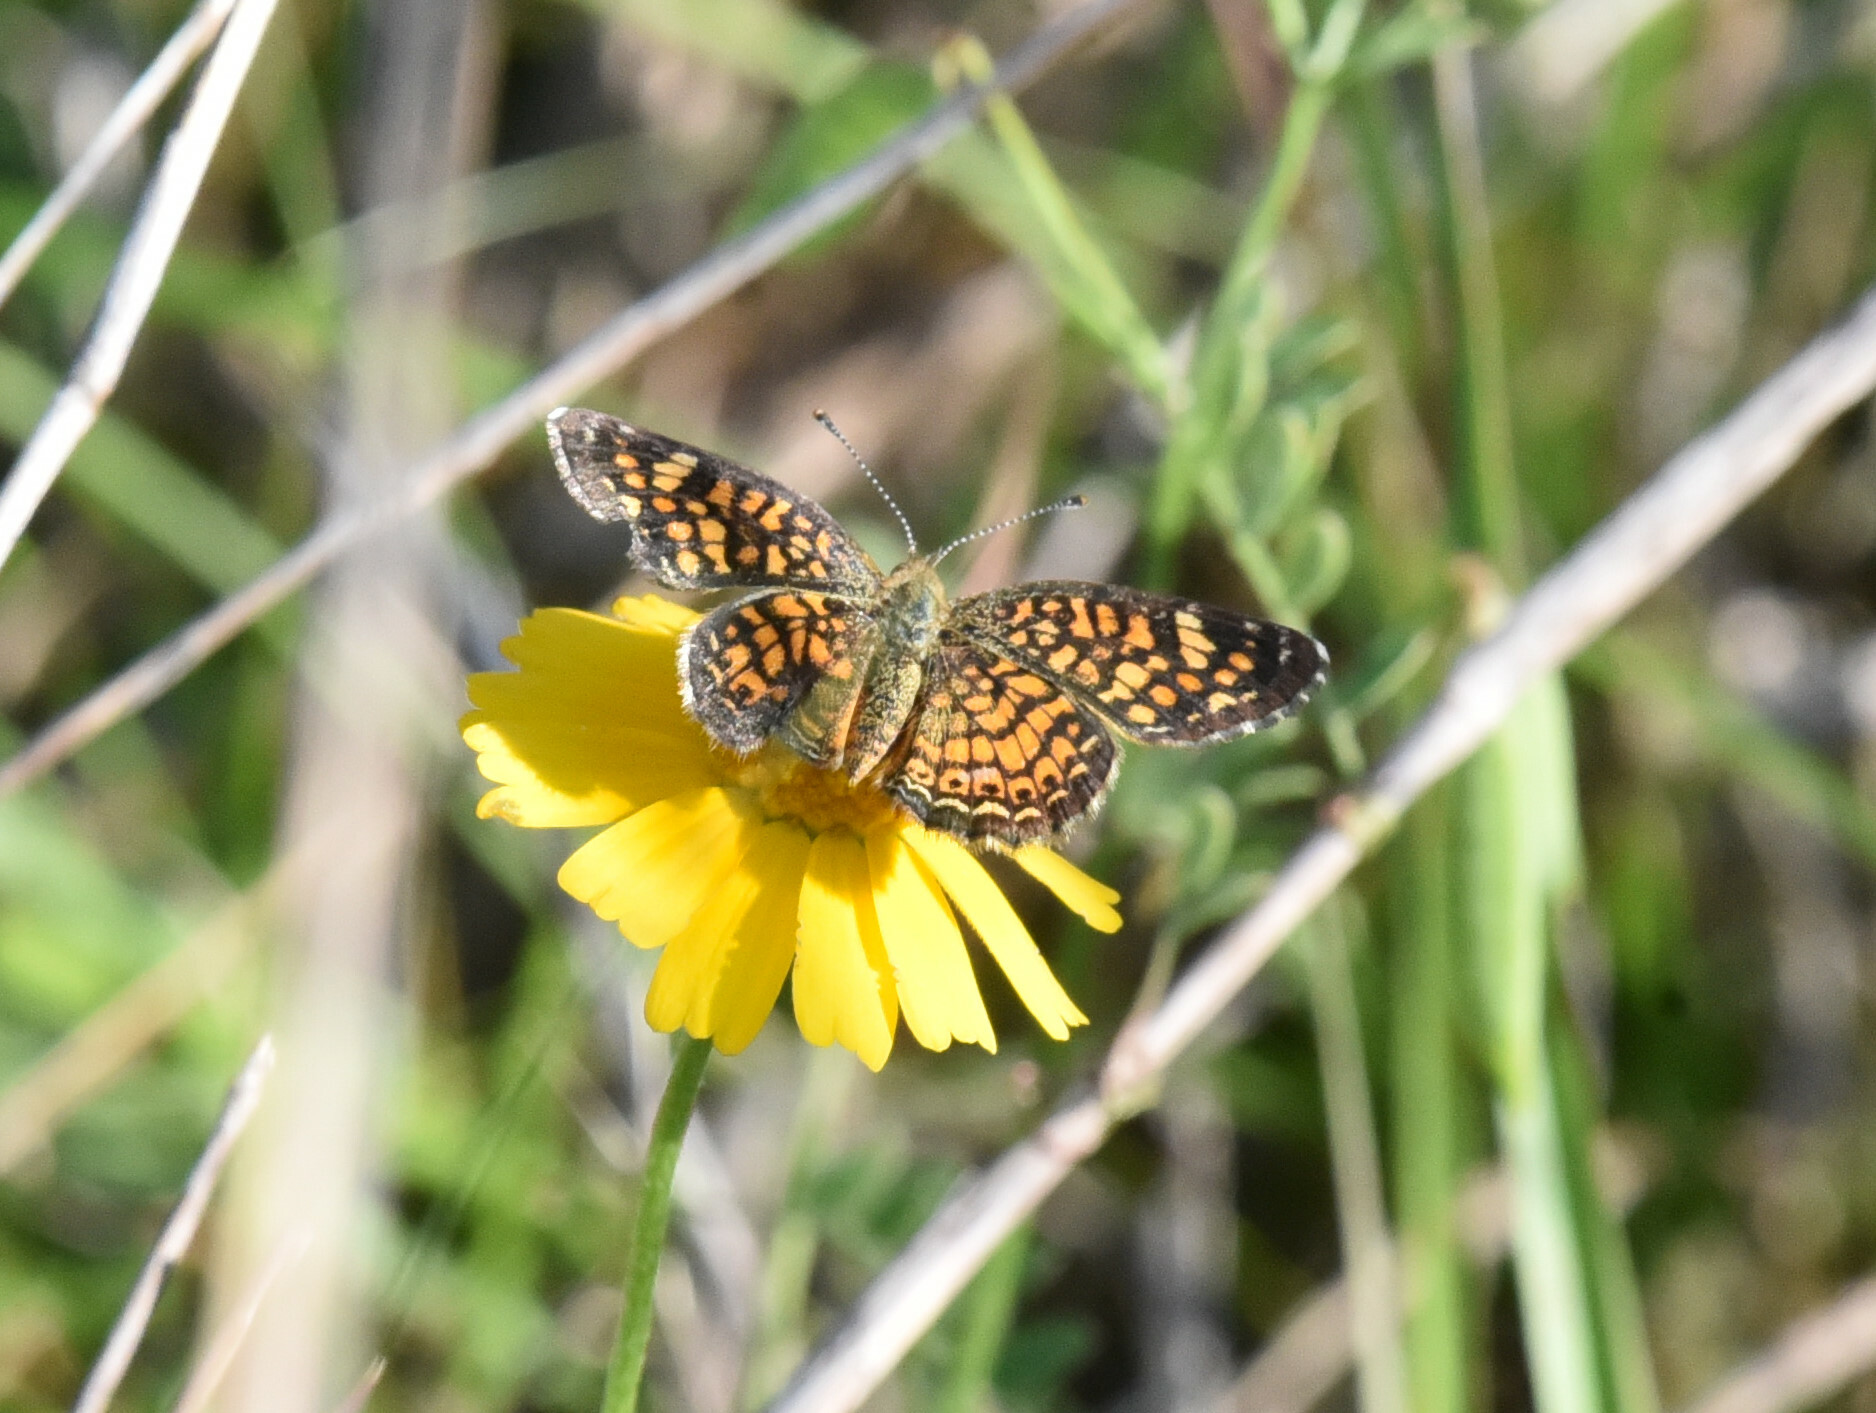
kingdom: Animalia
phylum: Arthropoda
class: Insecta
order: Lepidoptera
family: Nymphalidae
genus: Phyciodes
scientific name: Phyciodes vesta
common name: Vesta crescent
